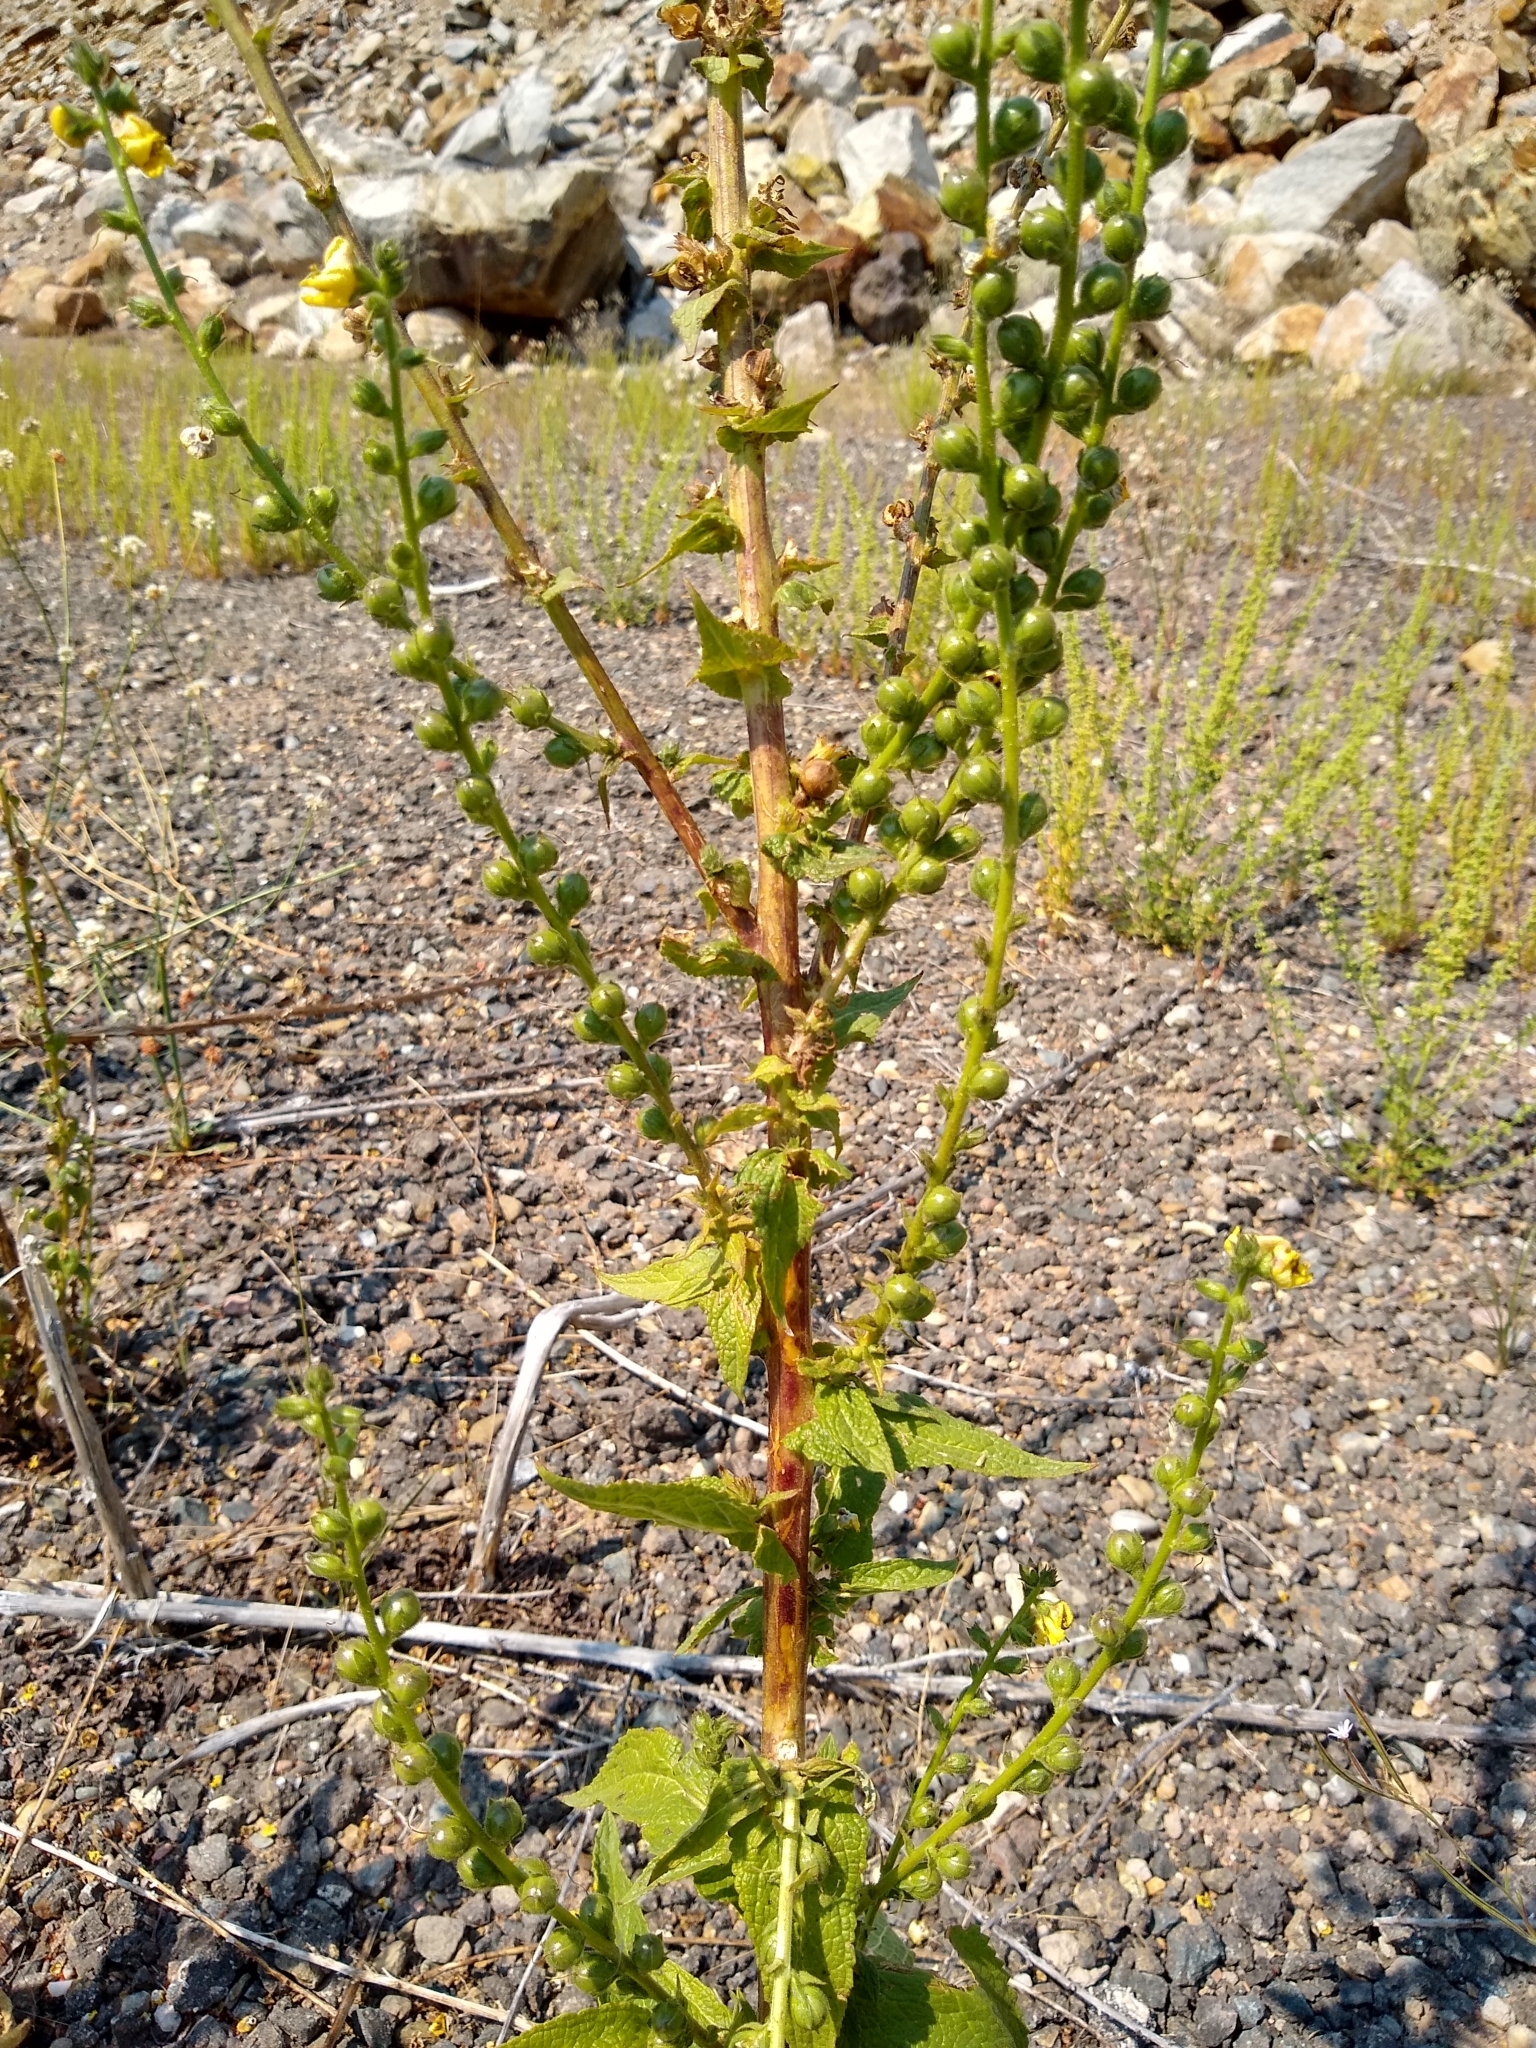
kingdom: Plantae
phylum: Tracheophyta
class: Magnoliopsida
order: Lamiales
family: Scrophulariaceae
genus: Verbascum
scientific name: Verbascum virgatum
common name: Twiggy mullein
